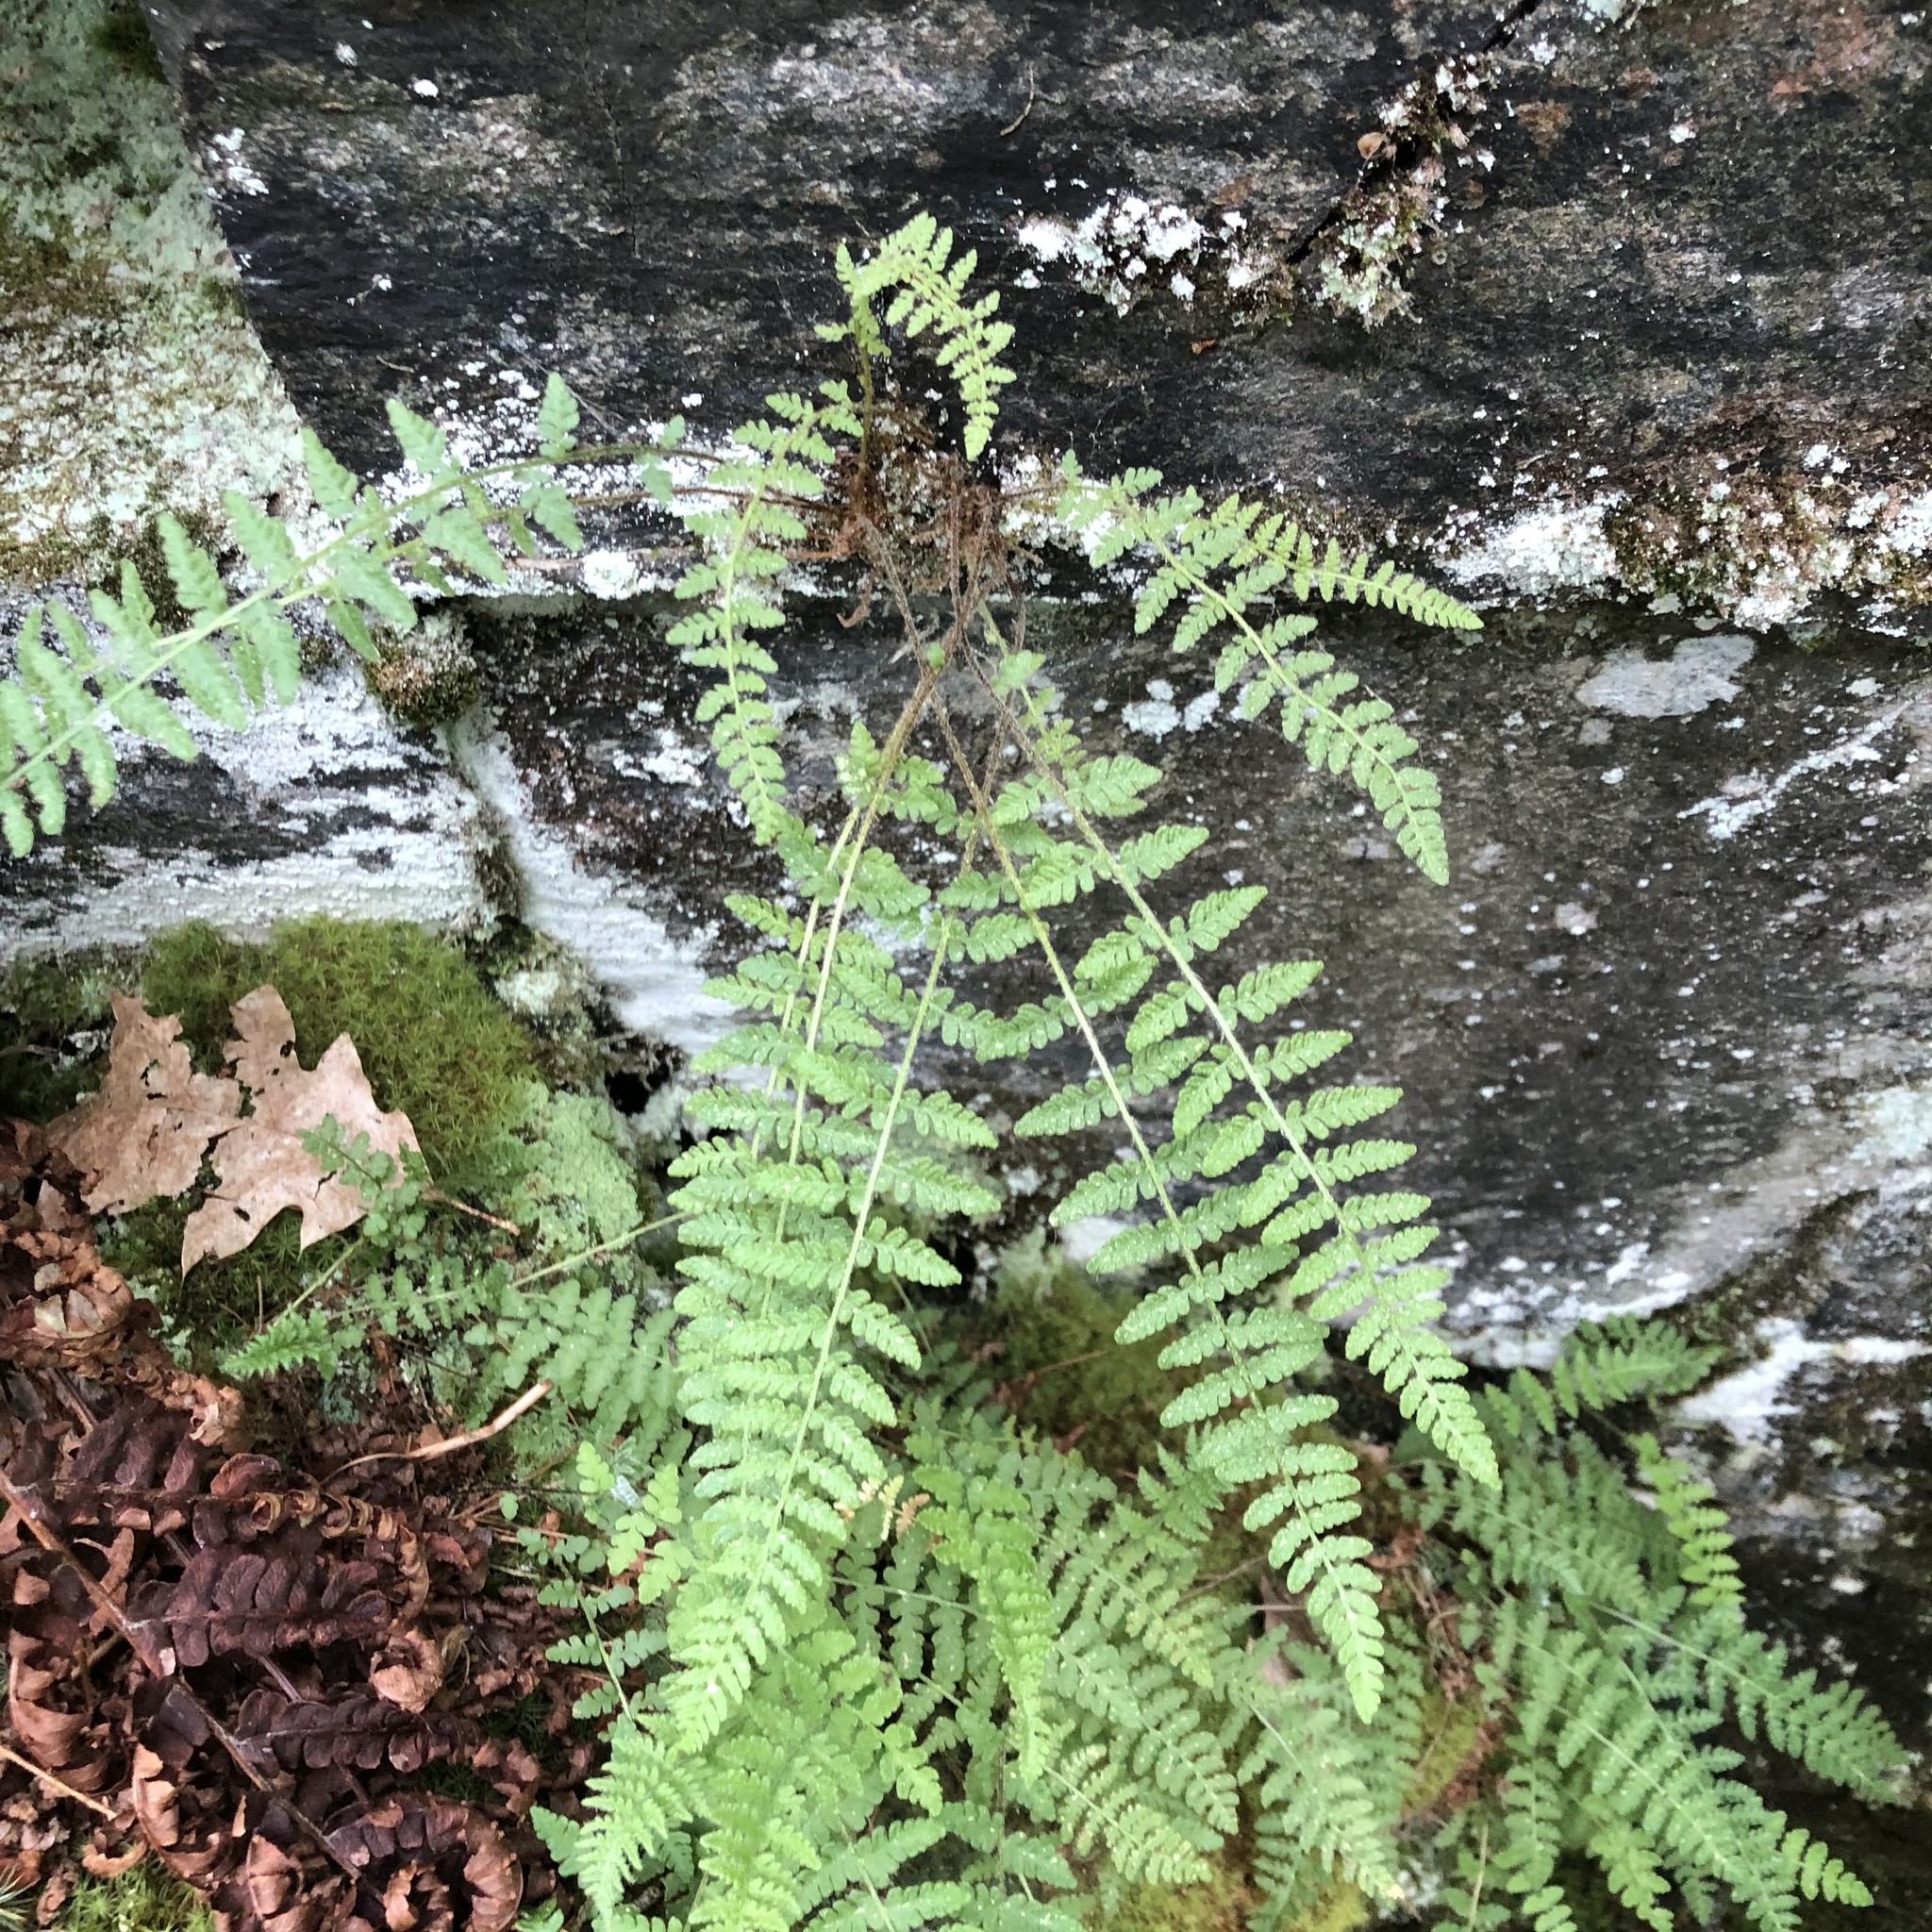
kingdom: Plantae
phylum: Tracheophyta
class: Polypodiopsida
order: Polypodiales
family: Woodsiaceae
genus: Woodsia
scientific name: Woodsia ilvensis
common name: Fragrant woodsia
